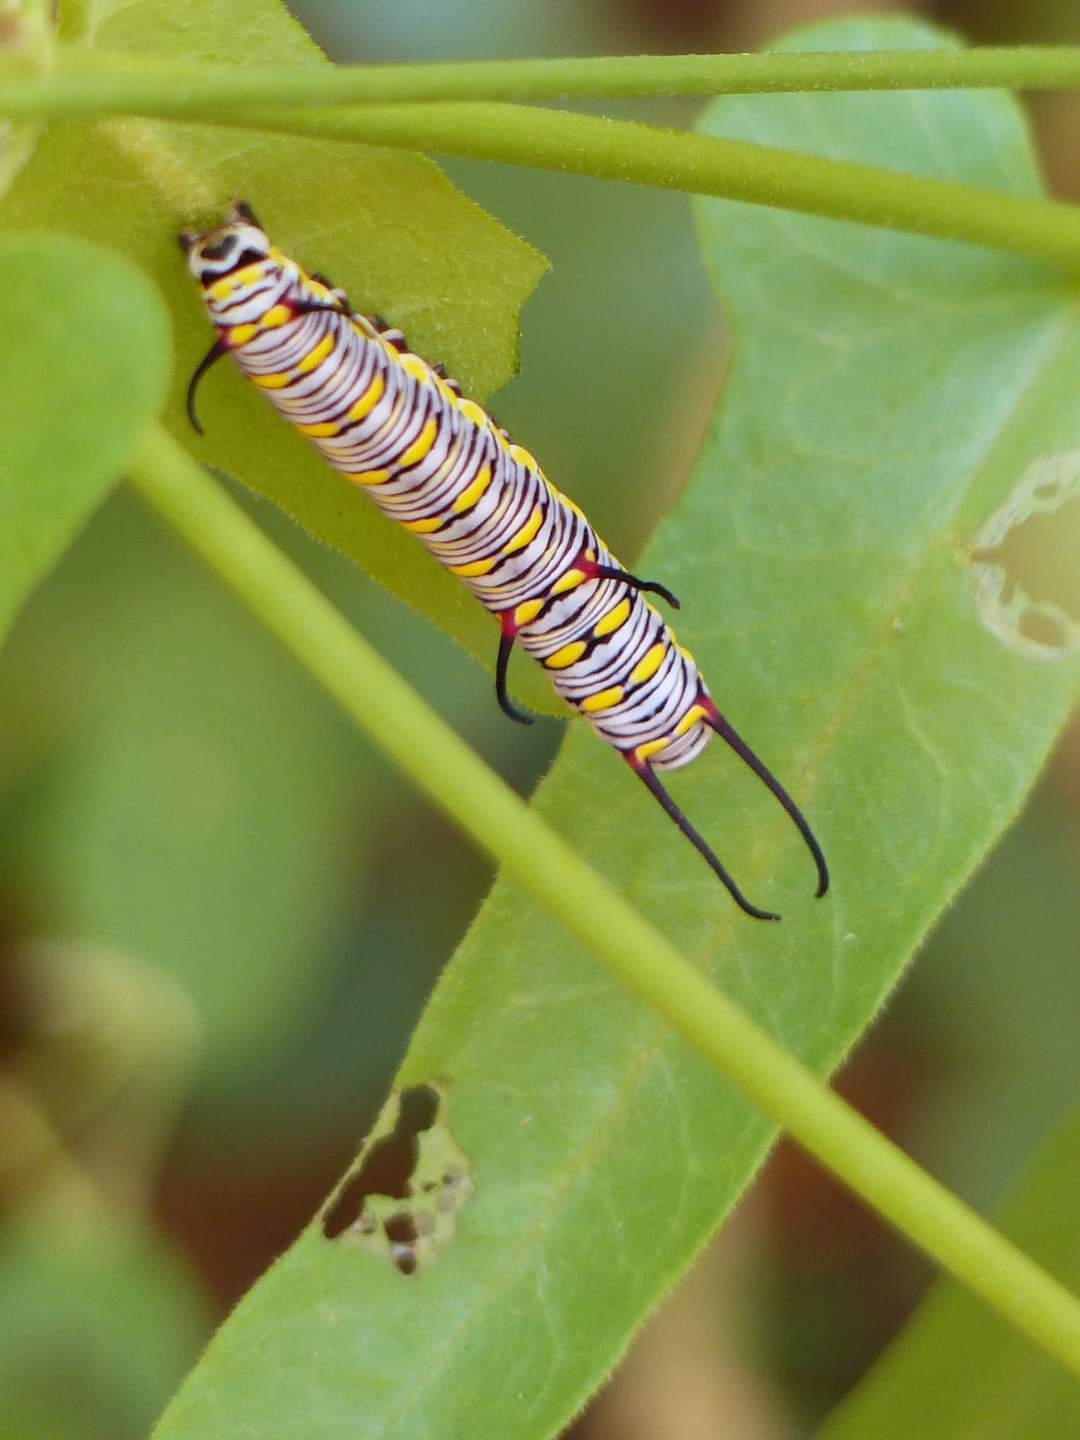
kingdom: Animalia
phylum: Arthropoda
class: Insecta
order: Lepidoptera
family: Nymphalidae
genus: Danaus
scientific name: Danaus chrysippus
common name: Plain tiger
